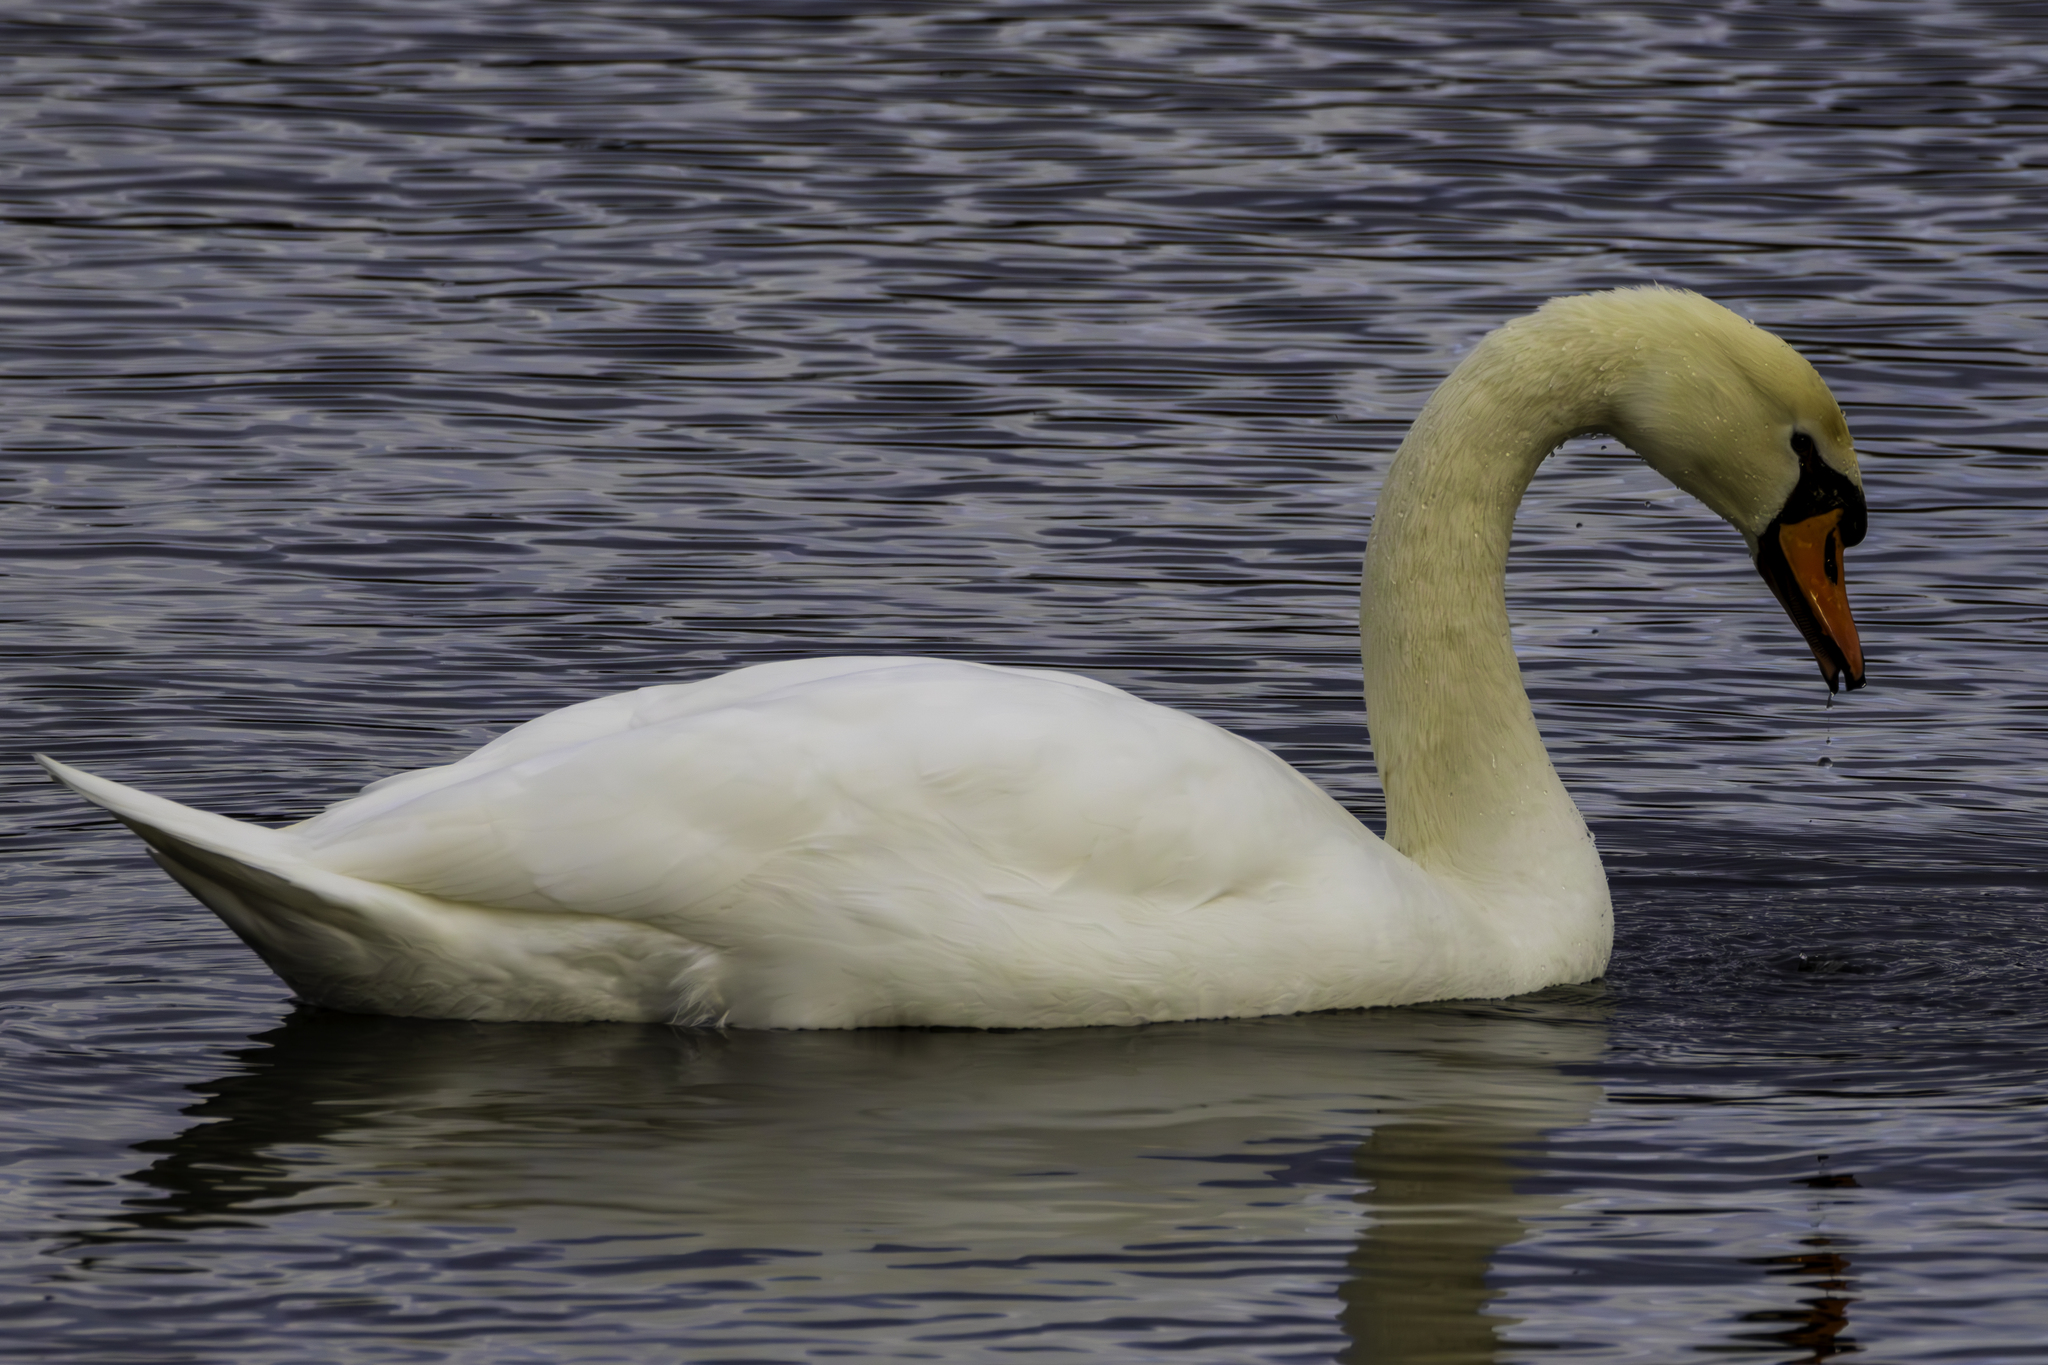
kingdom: Animalia
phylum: Chordata
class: Aves
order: Anseriformes
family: Anatidae
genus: Cygnus
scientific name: Cygnus olor
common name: Mute swan
